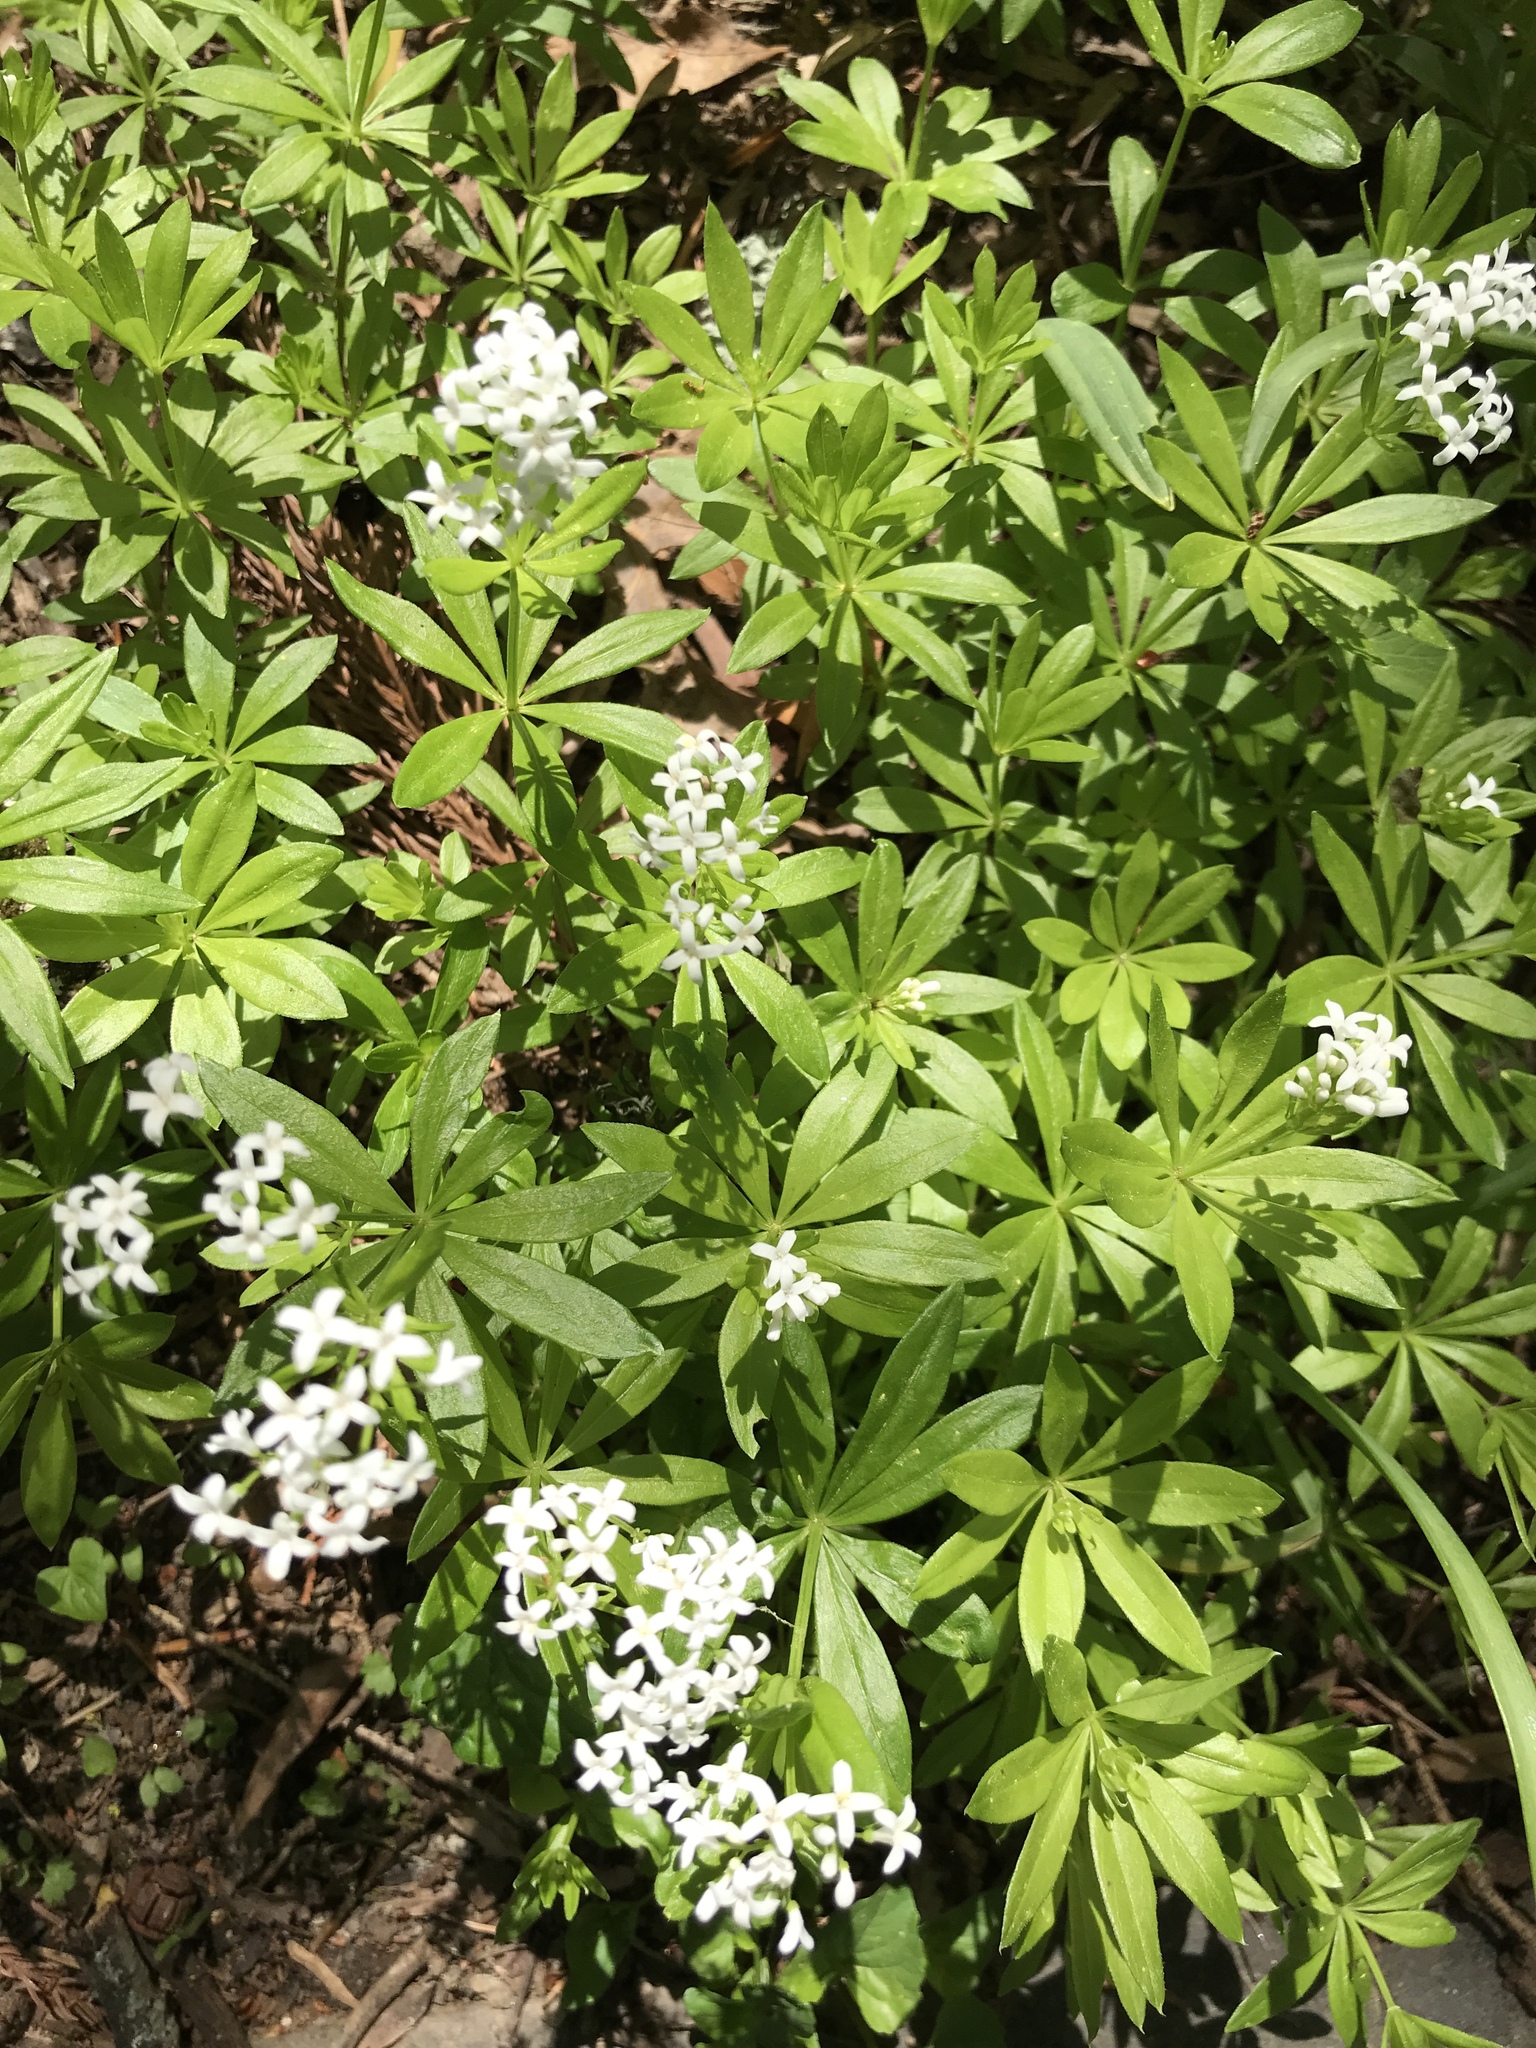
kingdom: Plantae
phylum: Tracheophyta
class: Magnoliopsida
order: Gentianales
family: Rubiaceae
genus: Galium
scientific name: Galium odoratum
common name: Sweet woodruff
